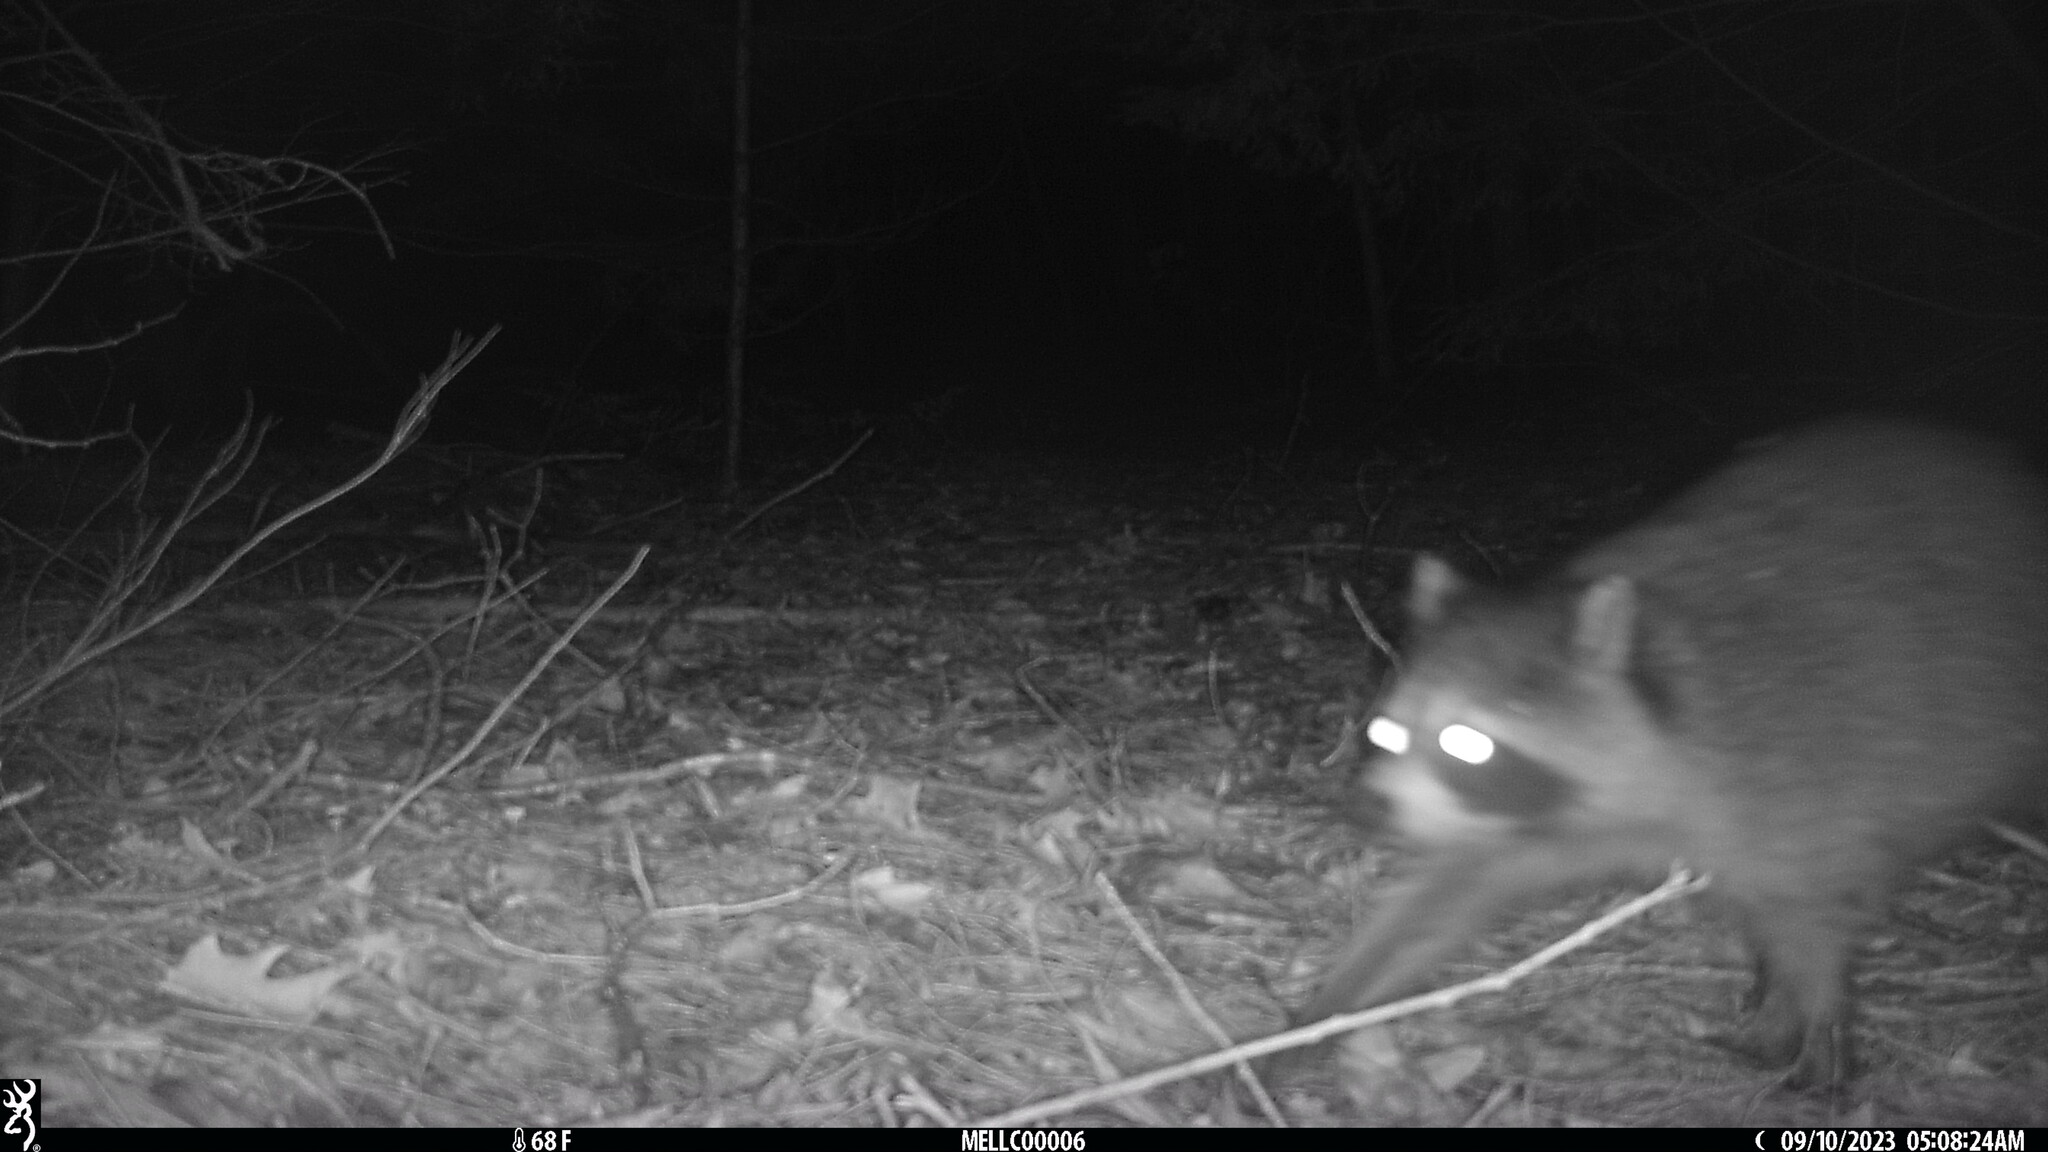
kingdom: Animalia
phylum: Chordata
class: Mammalia
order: Carnivora
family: Procyonidae
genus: Procyon
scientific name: Procyon lotor
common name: Raccoon
